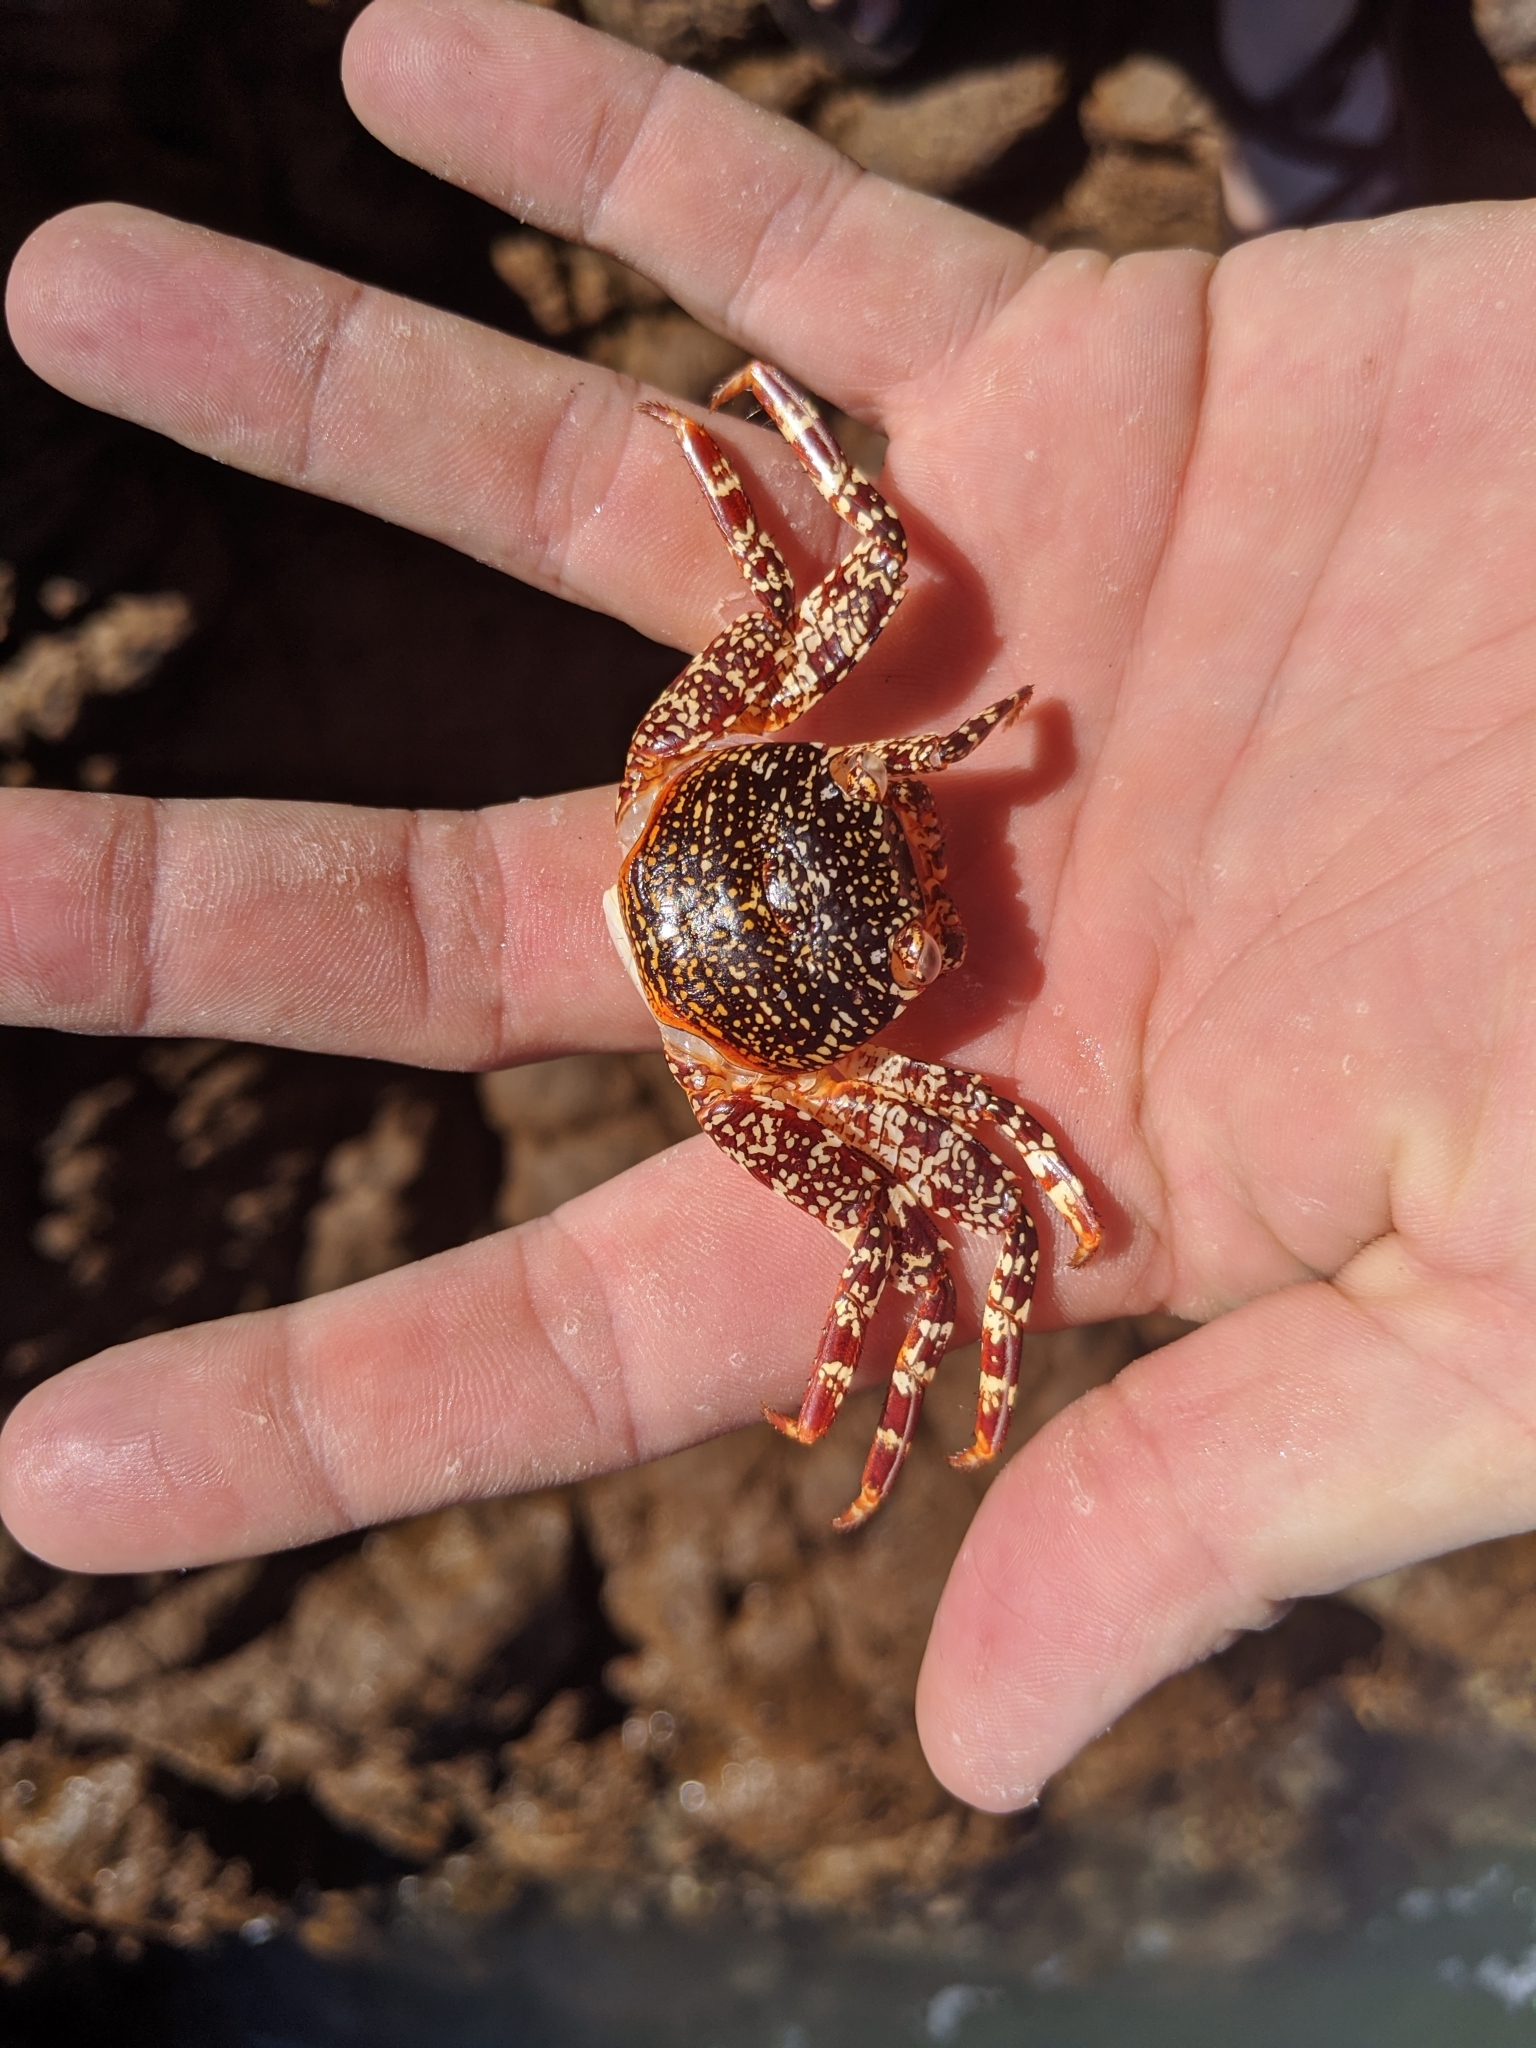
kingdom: Animalia
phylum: Arthropoda
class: Malacostraca
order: Decapoda
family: Grapsidae
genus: Grapsus
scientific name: Grapsus grapsus
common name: Sally lightfoot
